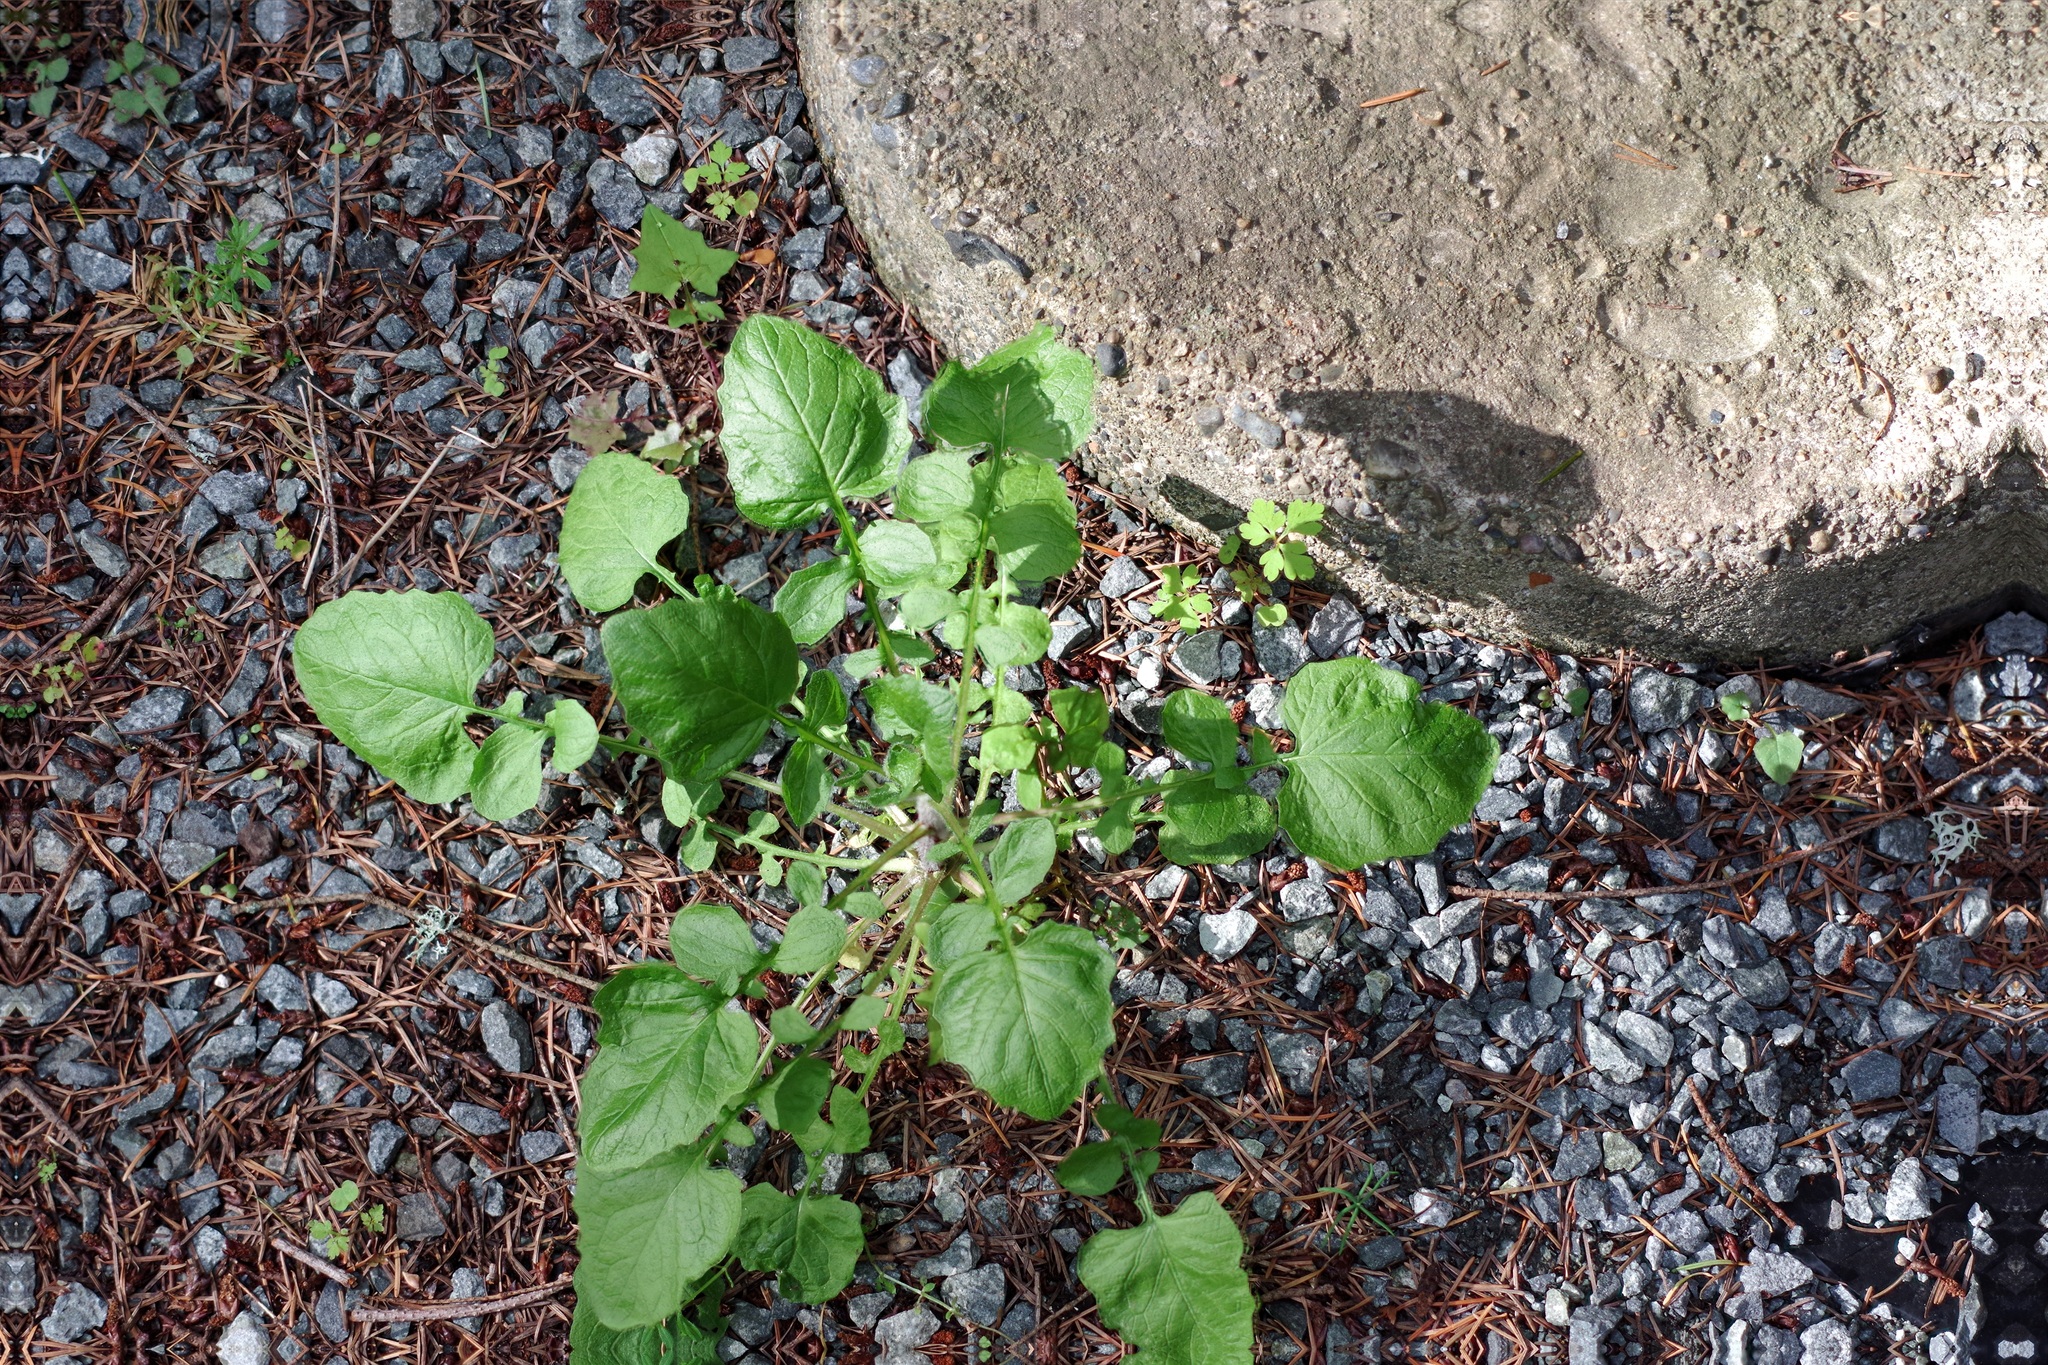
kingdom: Plantae
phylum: Tracheophyta
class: Magnoliopsida
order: Asterales
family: Asteraceae
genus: Lapsana
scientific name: Lapsana communis
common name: Nipplewort
